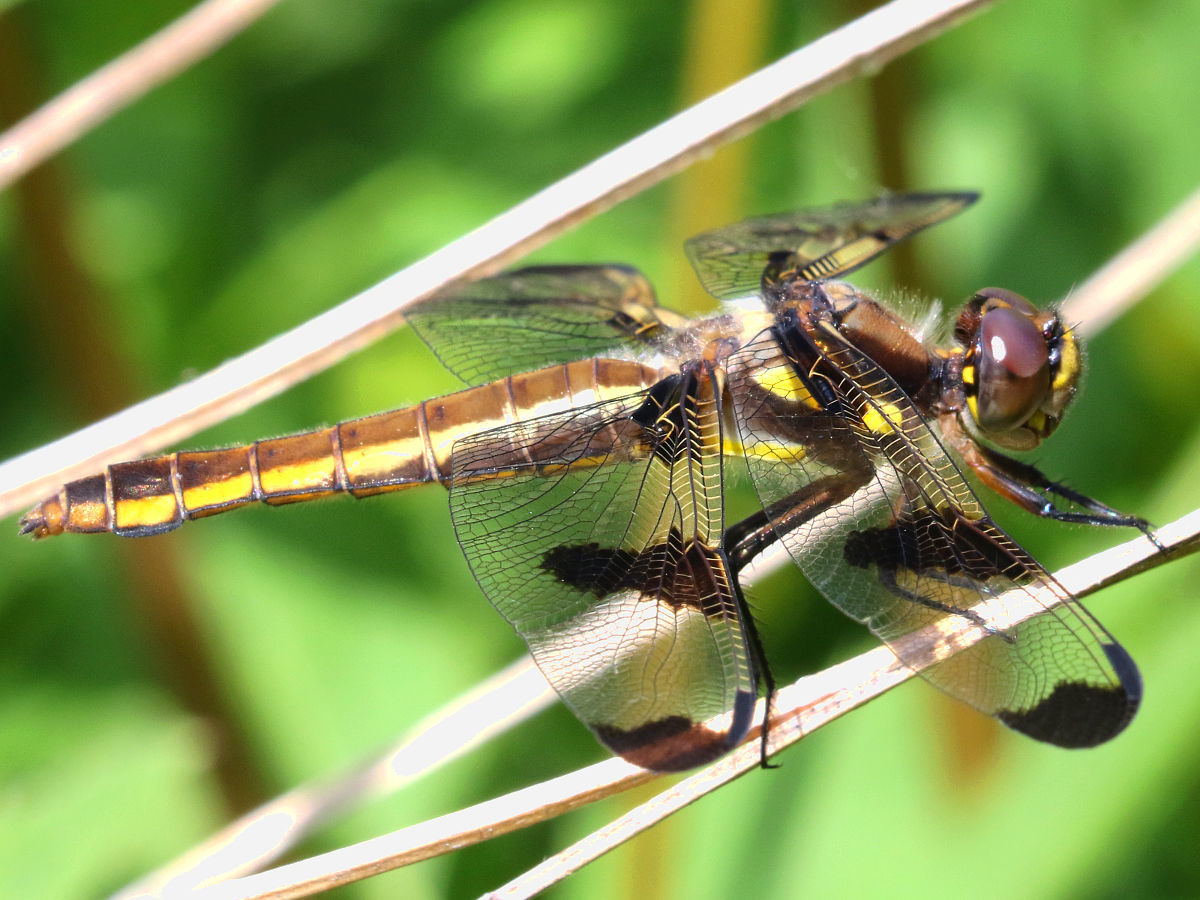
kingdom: Animalia
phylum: Arthropoda
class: Insecta
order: Odonata
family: Libellulidae
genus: Libellula
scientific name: Libellula pulchella
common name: Twelve-spotted skimmer
